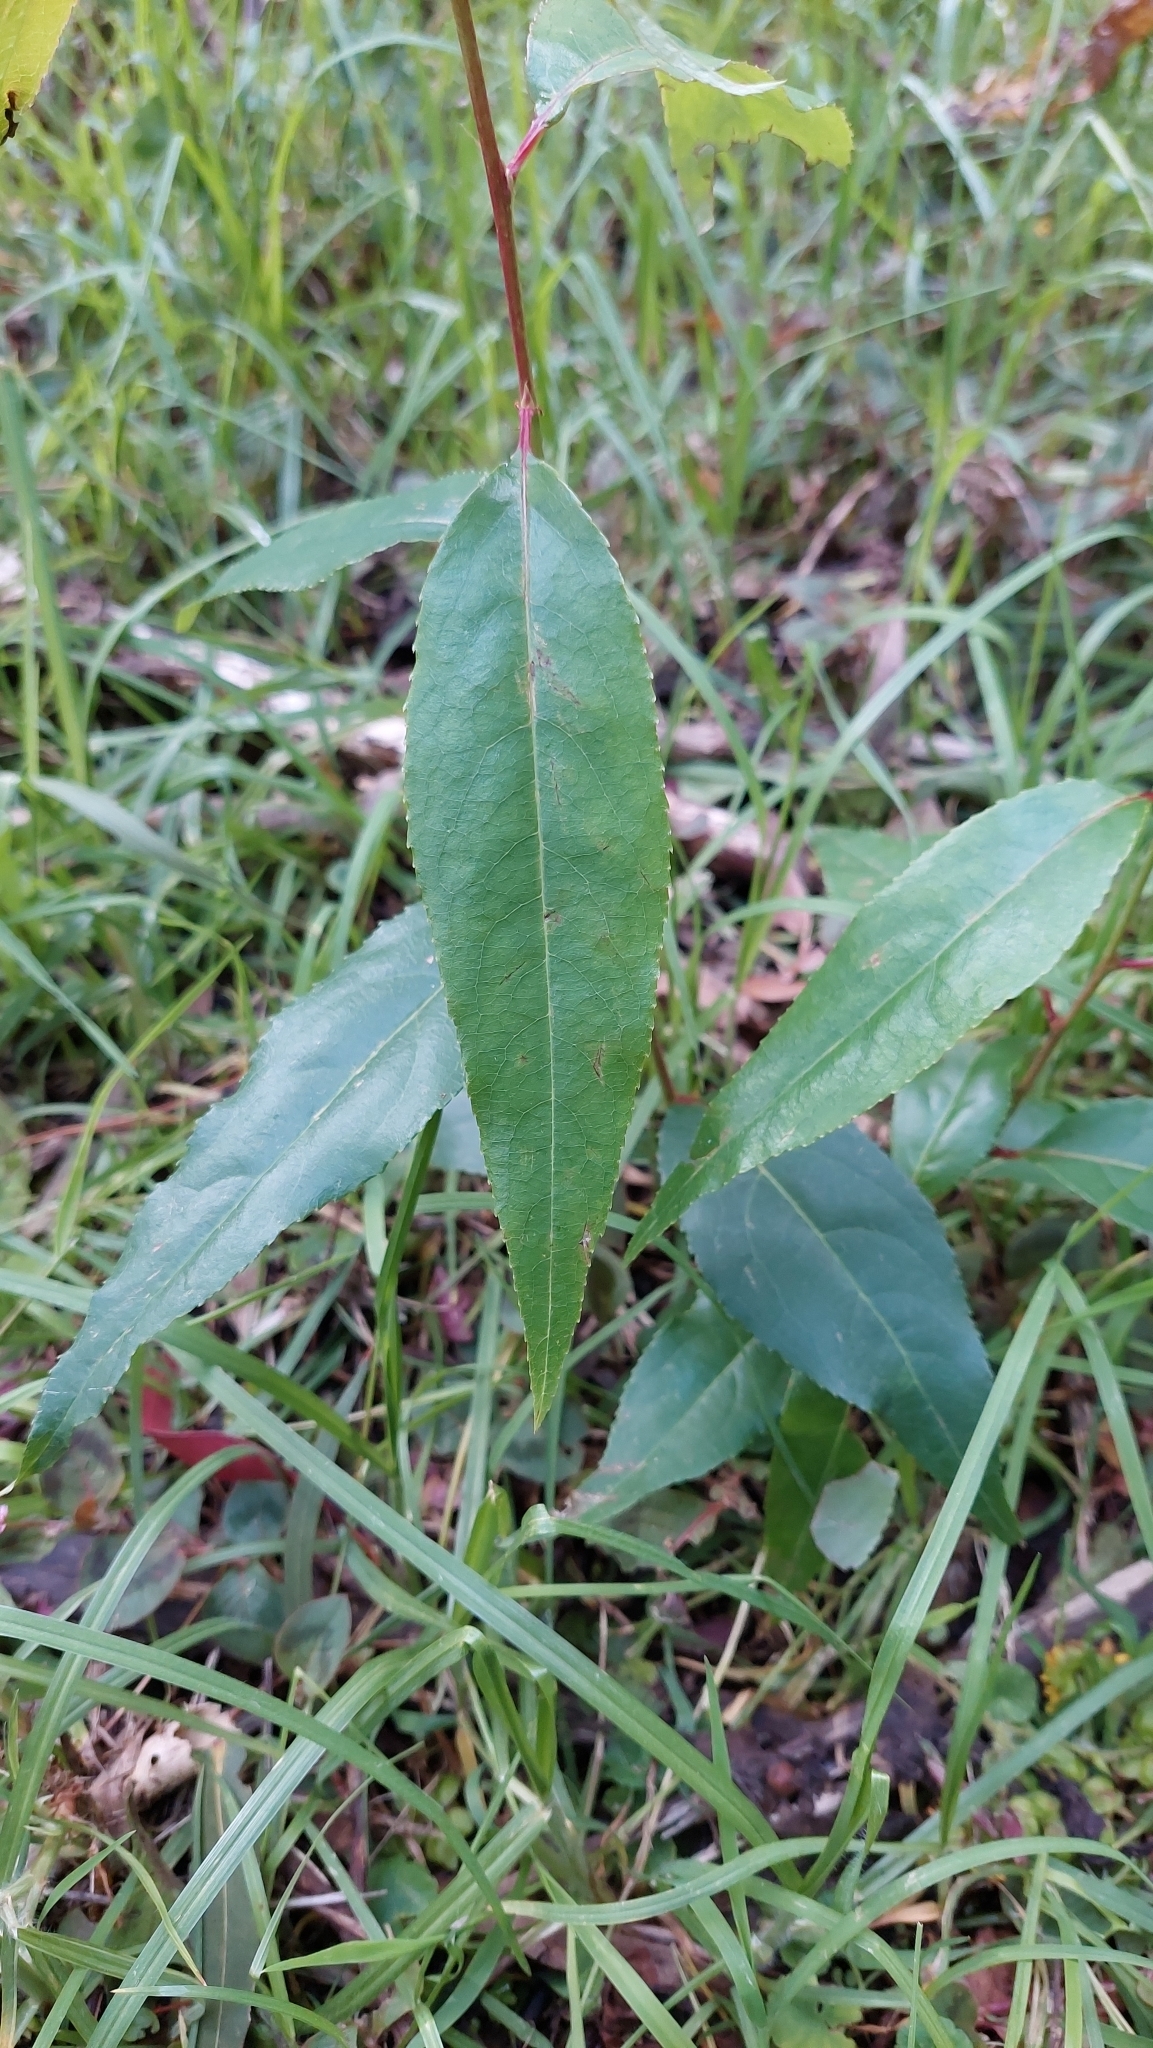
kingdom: Plantae
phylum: Tracheophyta
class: Magnoliopsida
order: Rosales
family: Rosaceae
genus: Prunus
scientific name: Prunus serotina
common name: Black cherry
